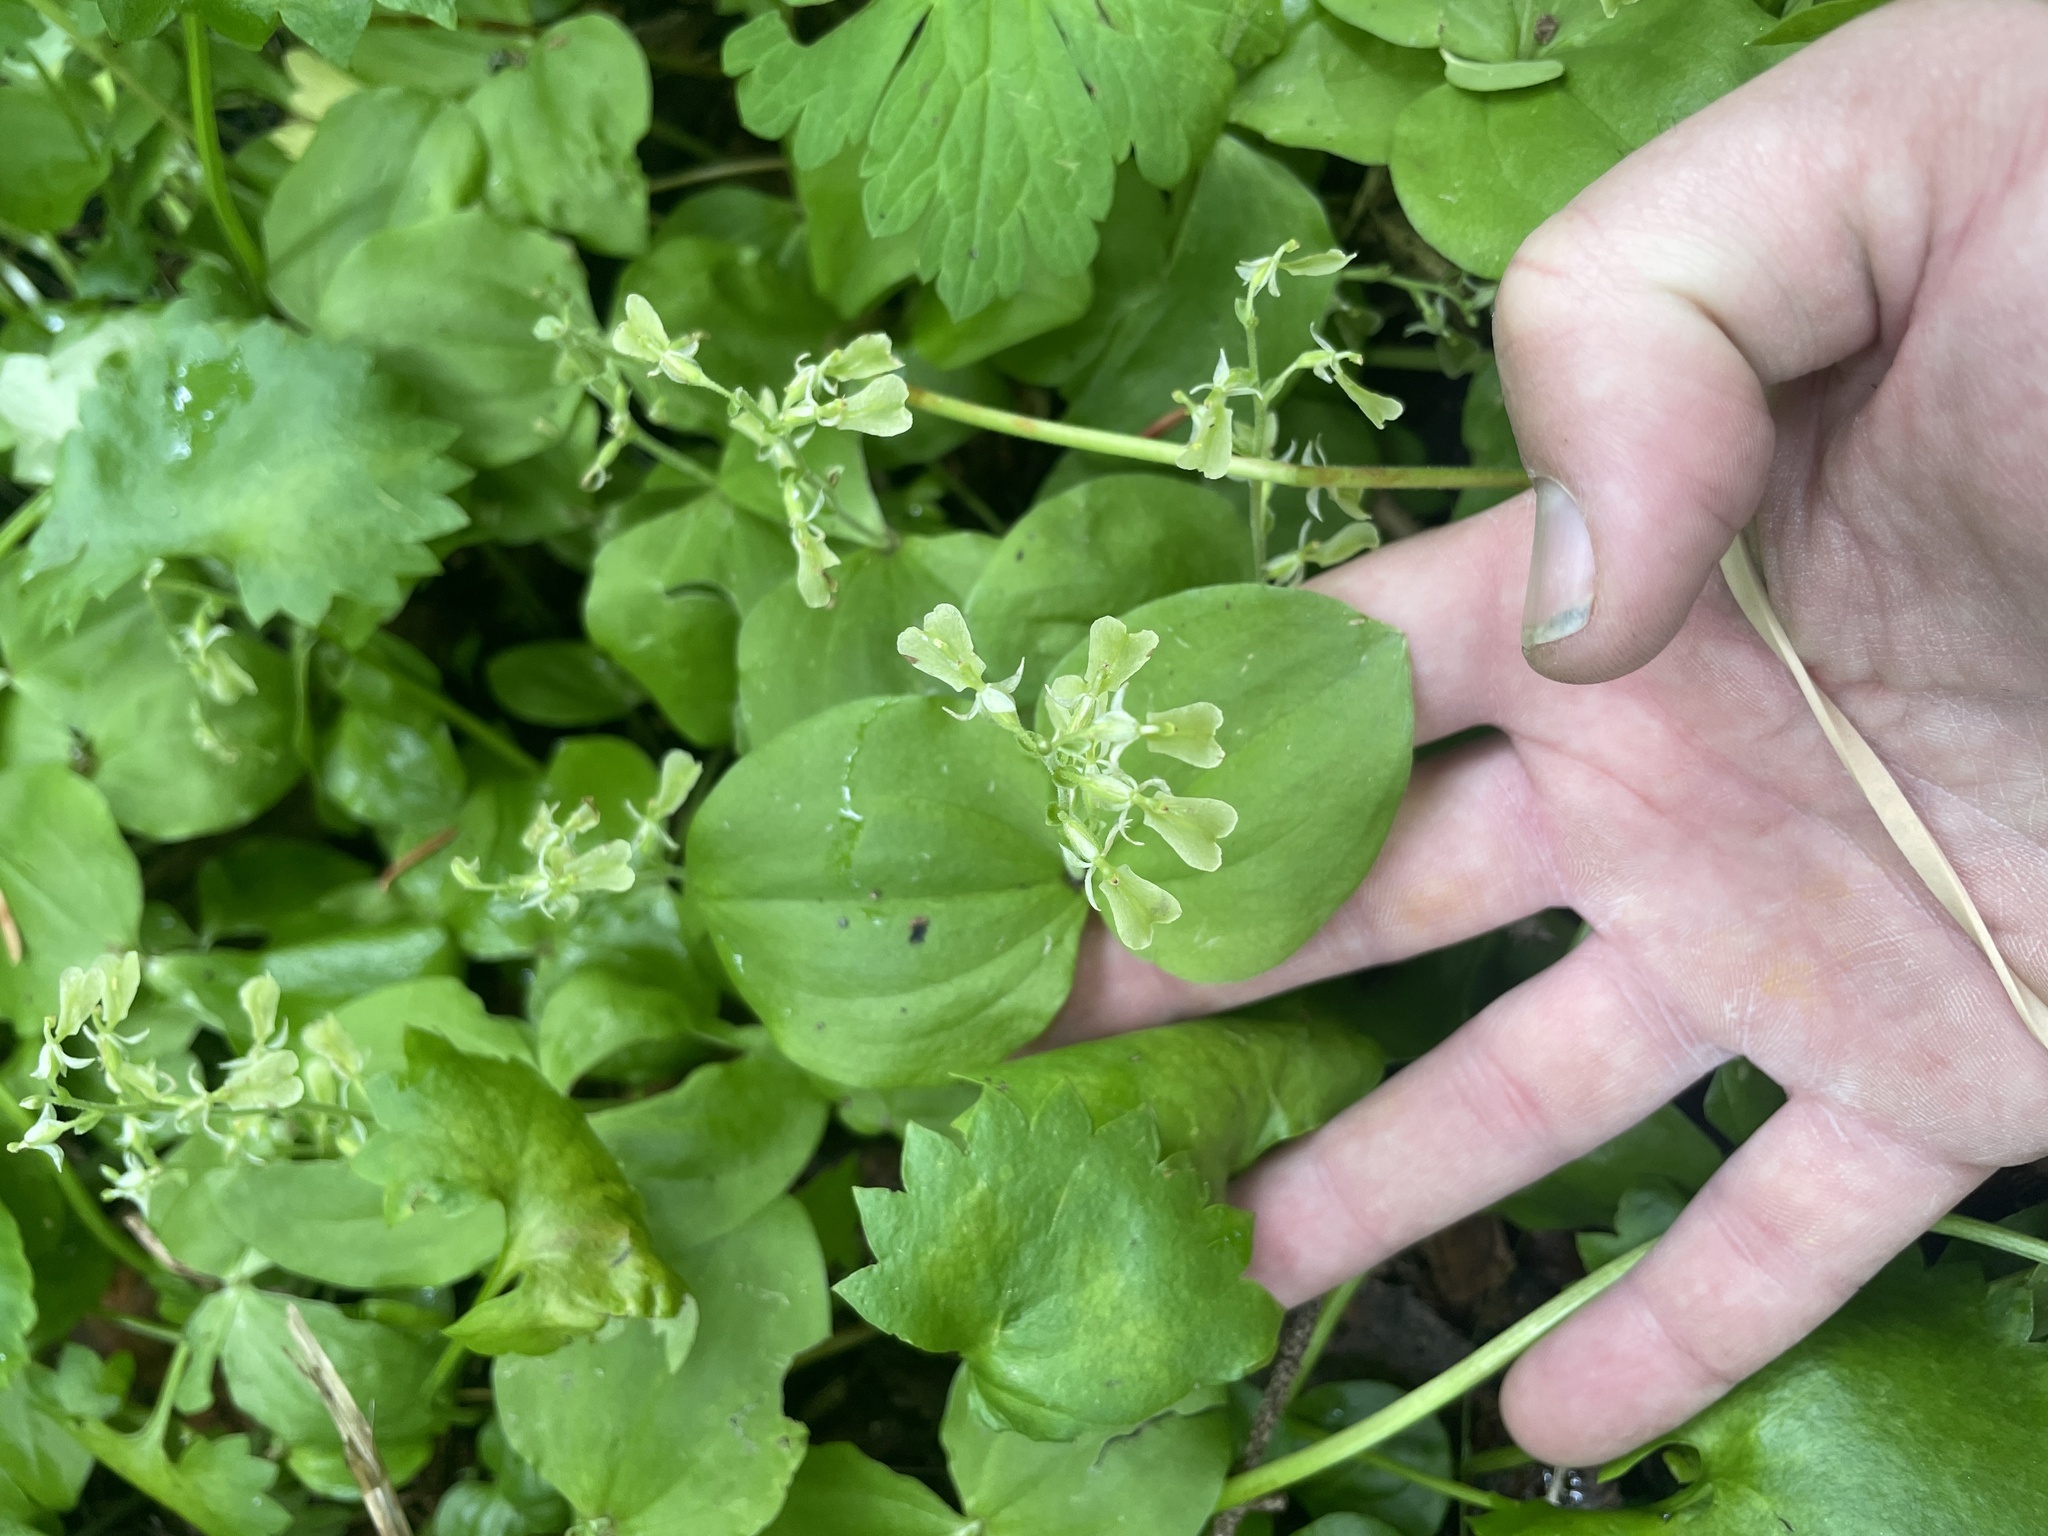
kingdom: Plantae
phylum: Tracheophyta
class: Liliopsida
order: Asparagales
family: Orchidaceae
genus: Neottia
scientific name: Neottia convallarioides
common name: Broadleaf twayblade
